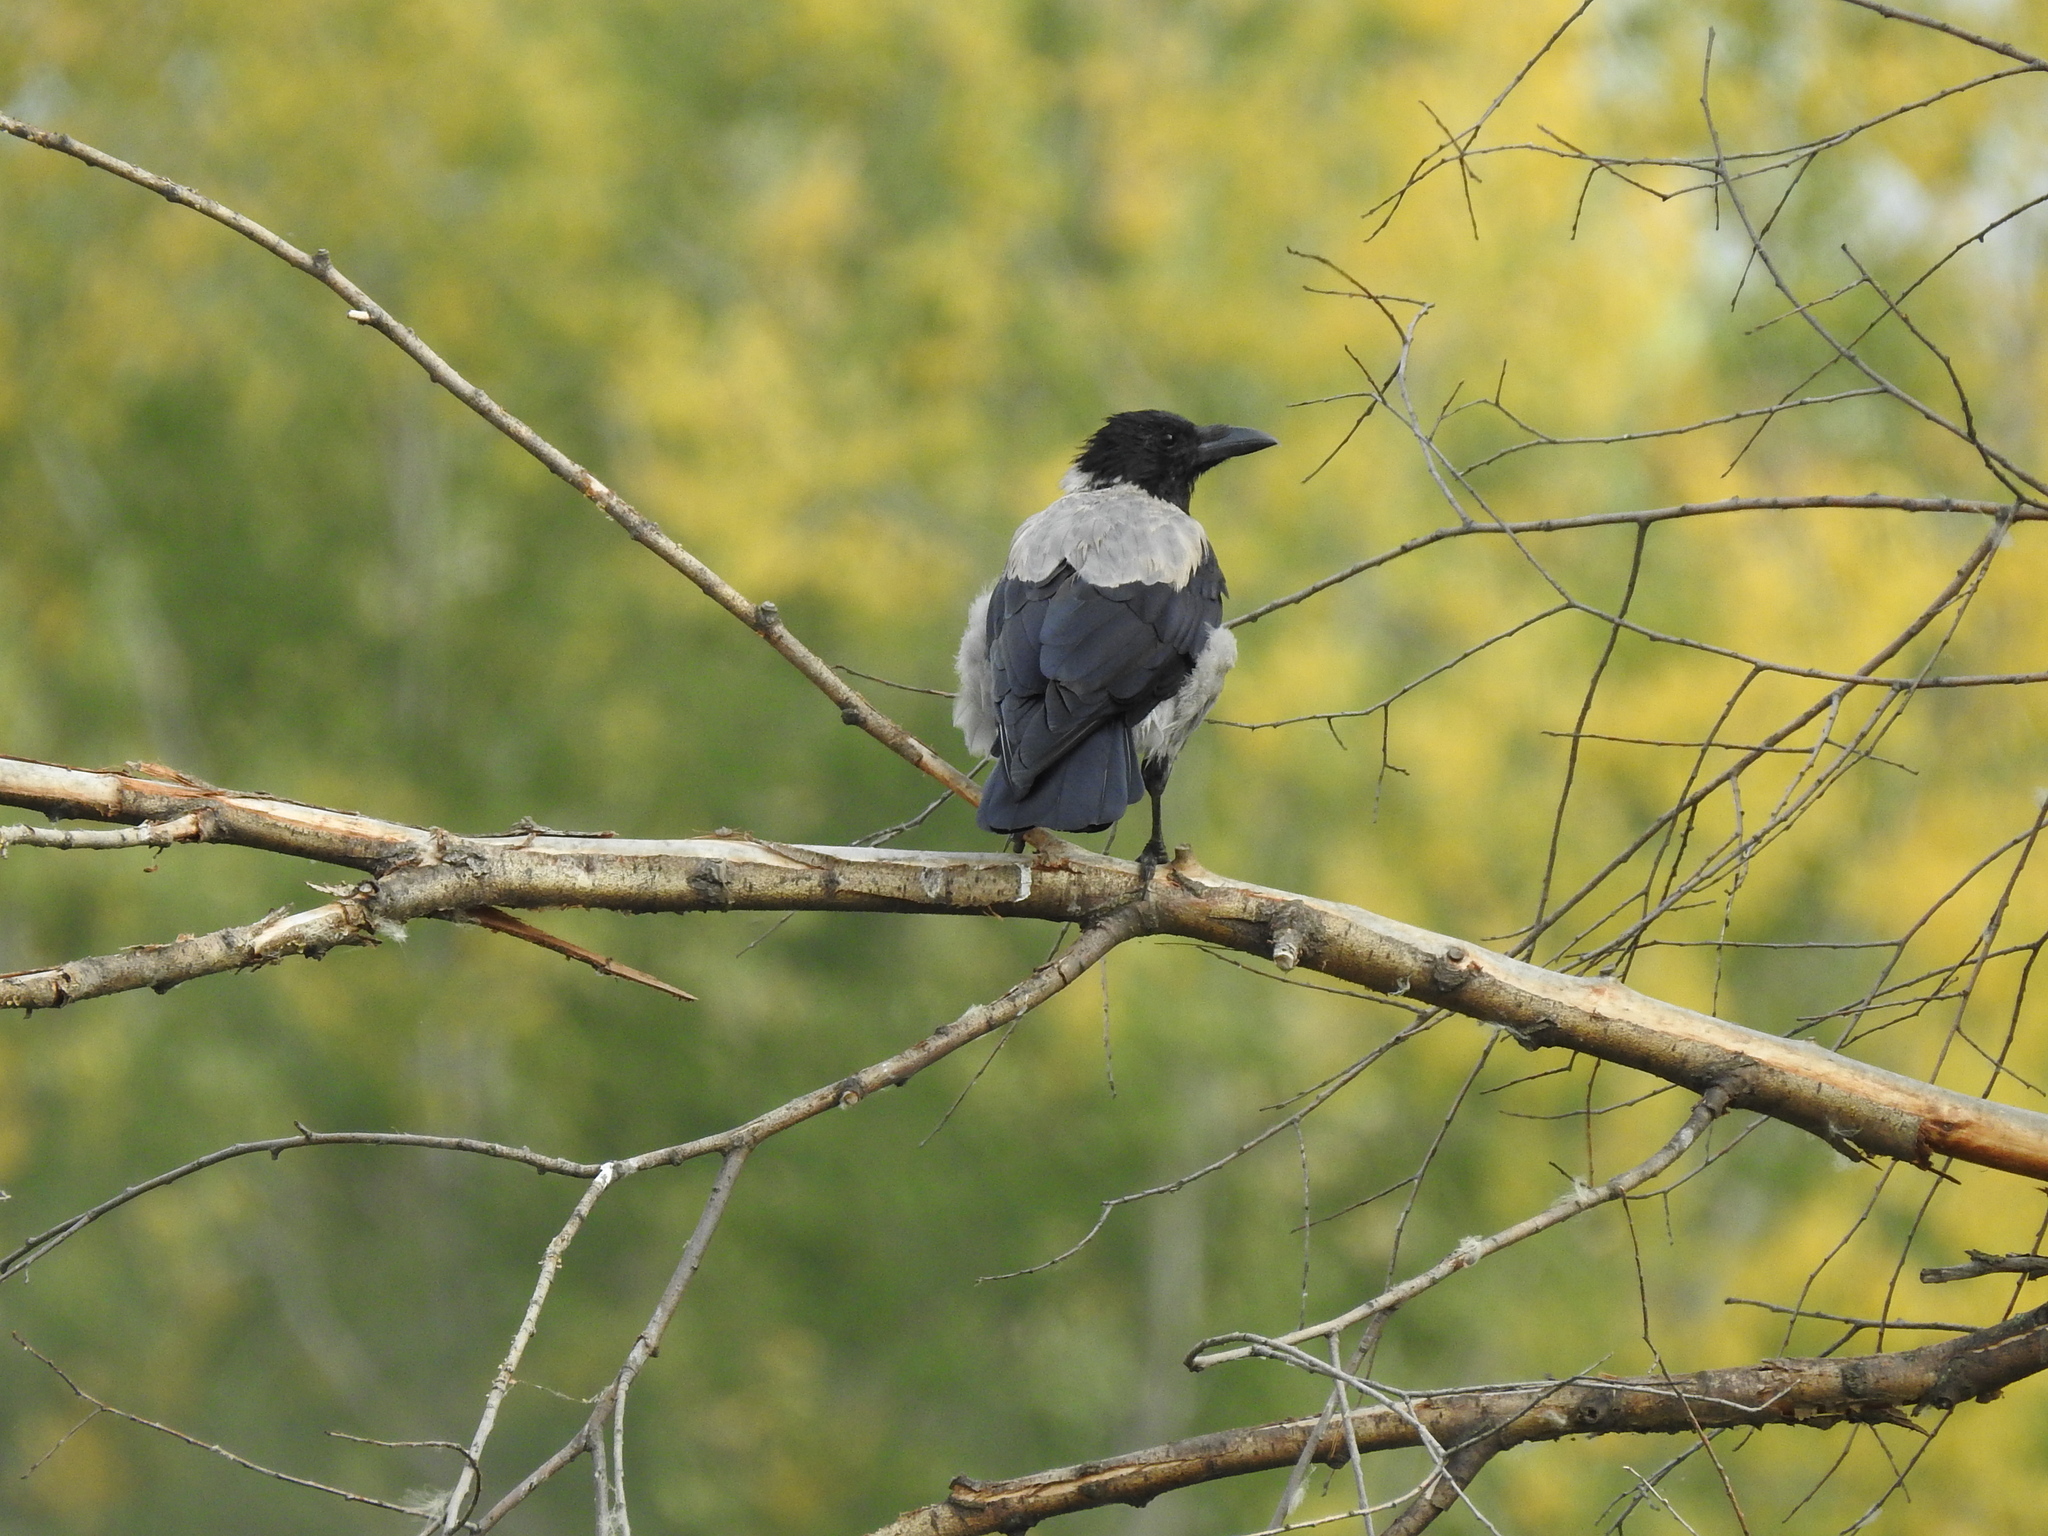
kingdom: Animalia
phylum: Chordata
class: Aves
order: Passeriformes
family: Corvidae
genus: Corvus
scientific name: Corvus cornix
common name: Hooded crow
